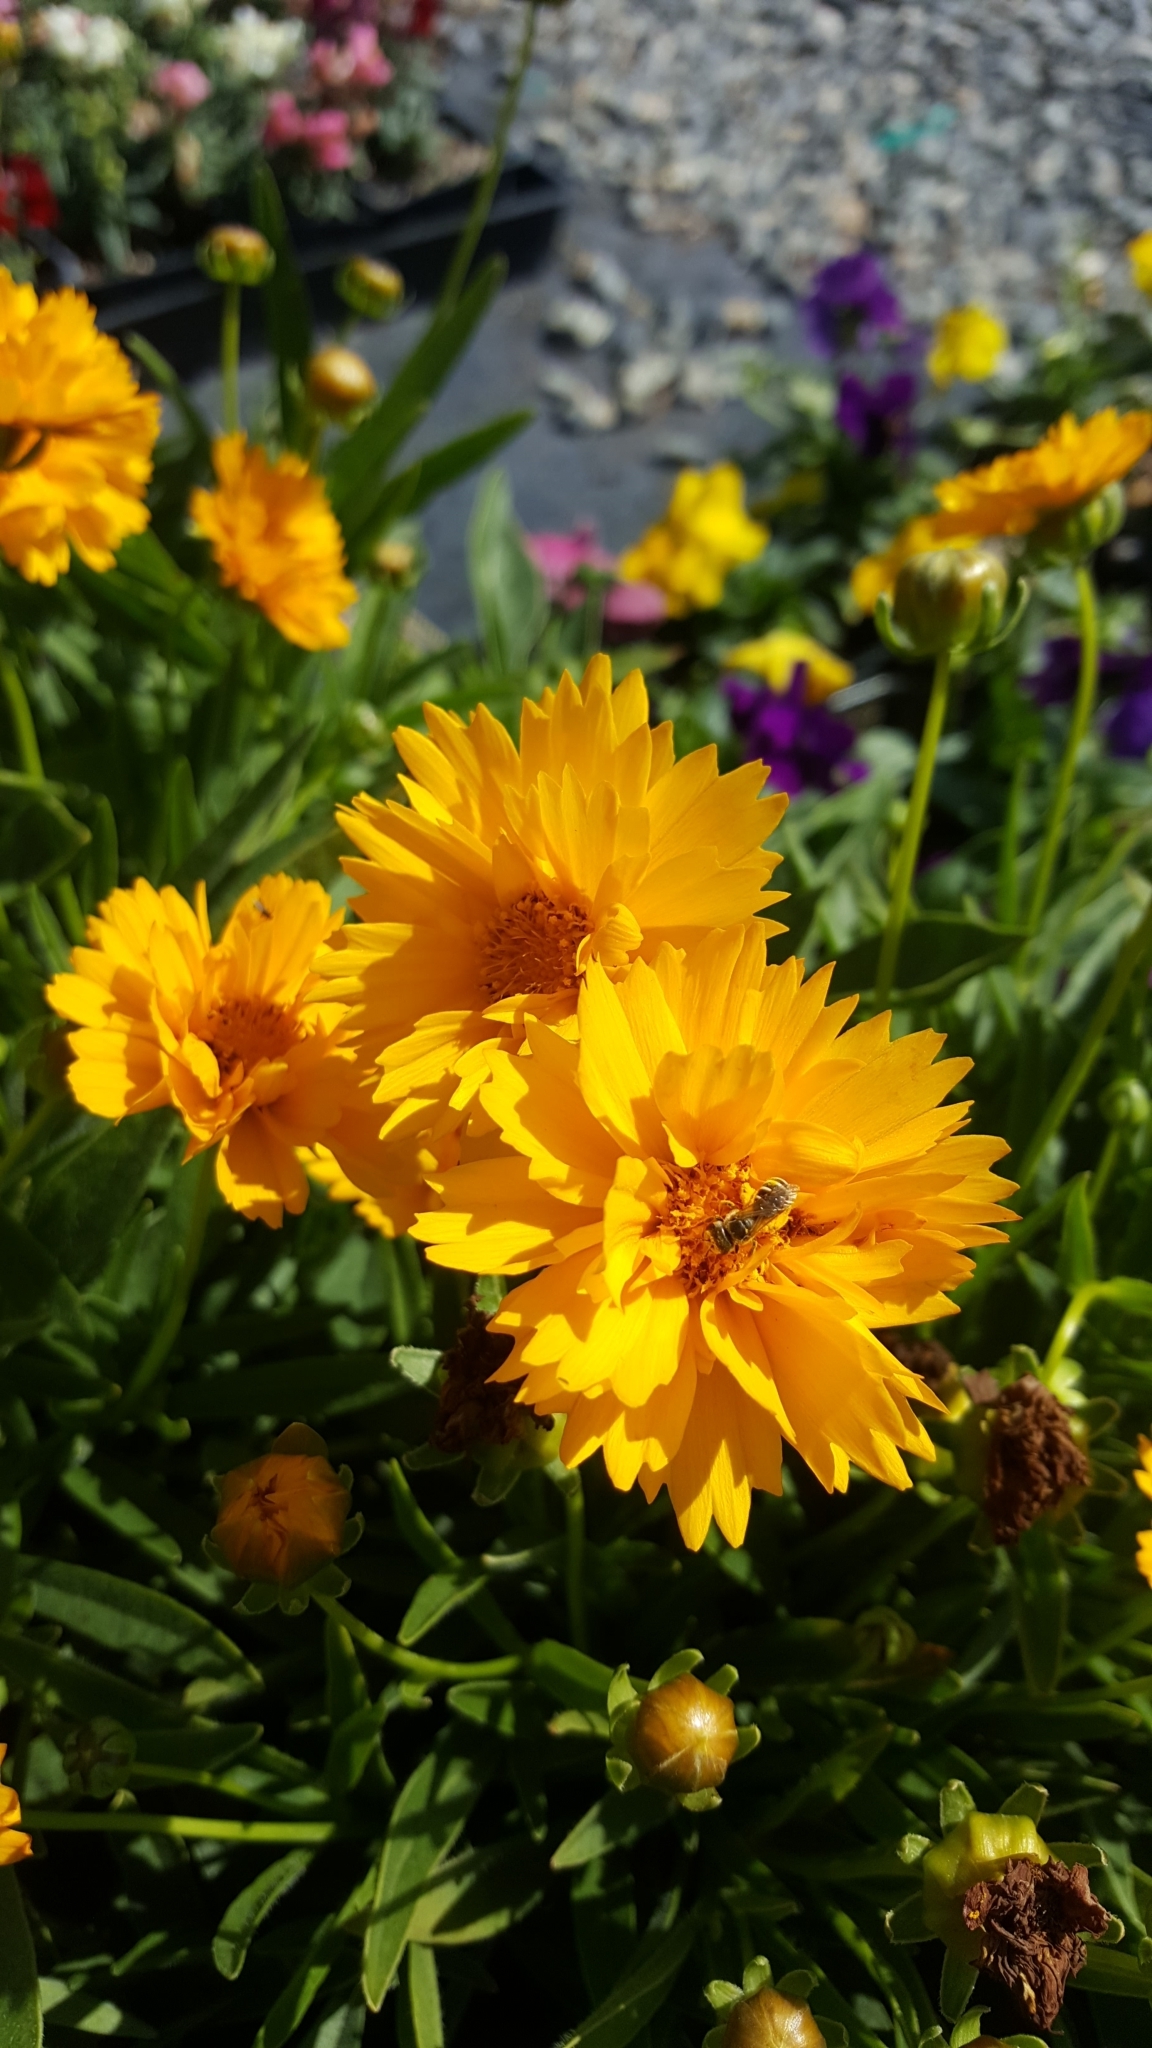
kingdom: Animalia
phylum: Arthropoda
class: Insecta
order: Hymenoptera
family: Halictidae
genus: Halictus
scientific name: Halictus ligatus
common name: Ligated furrow bee
